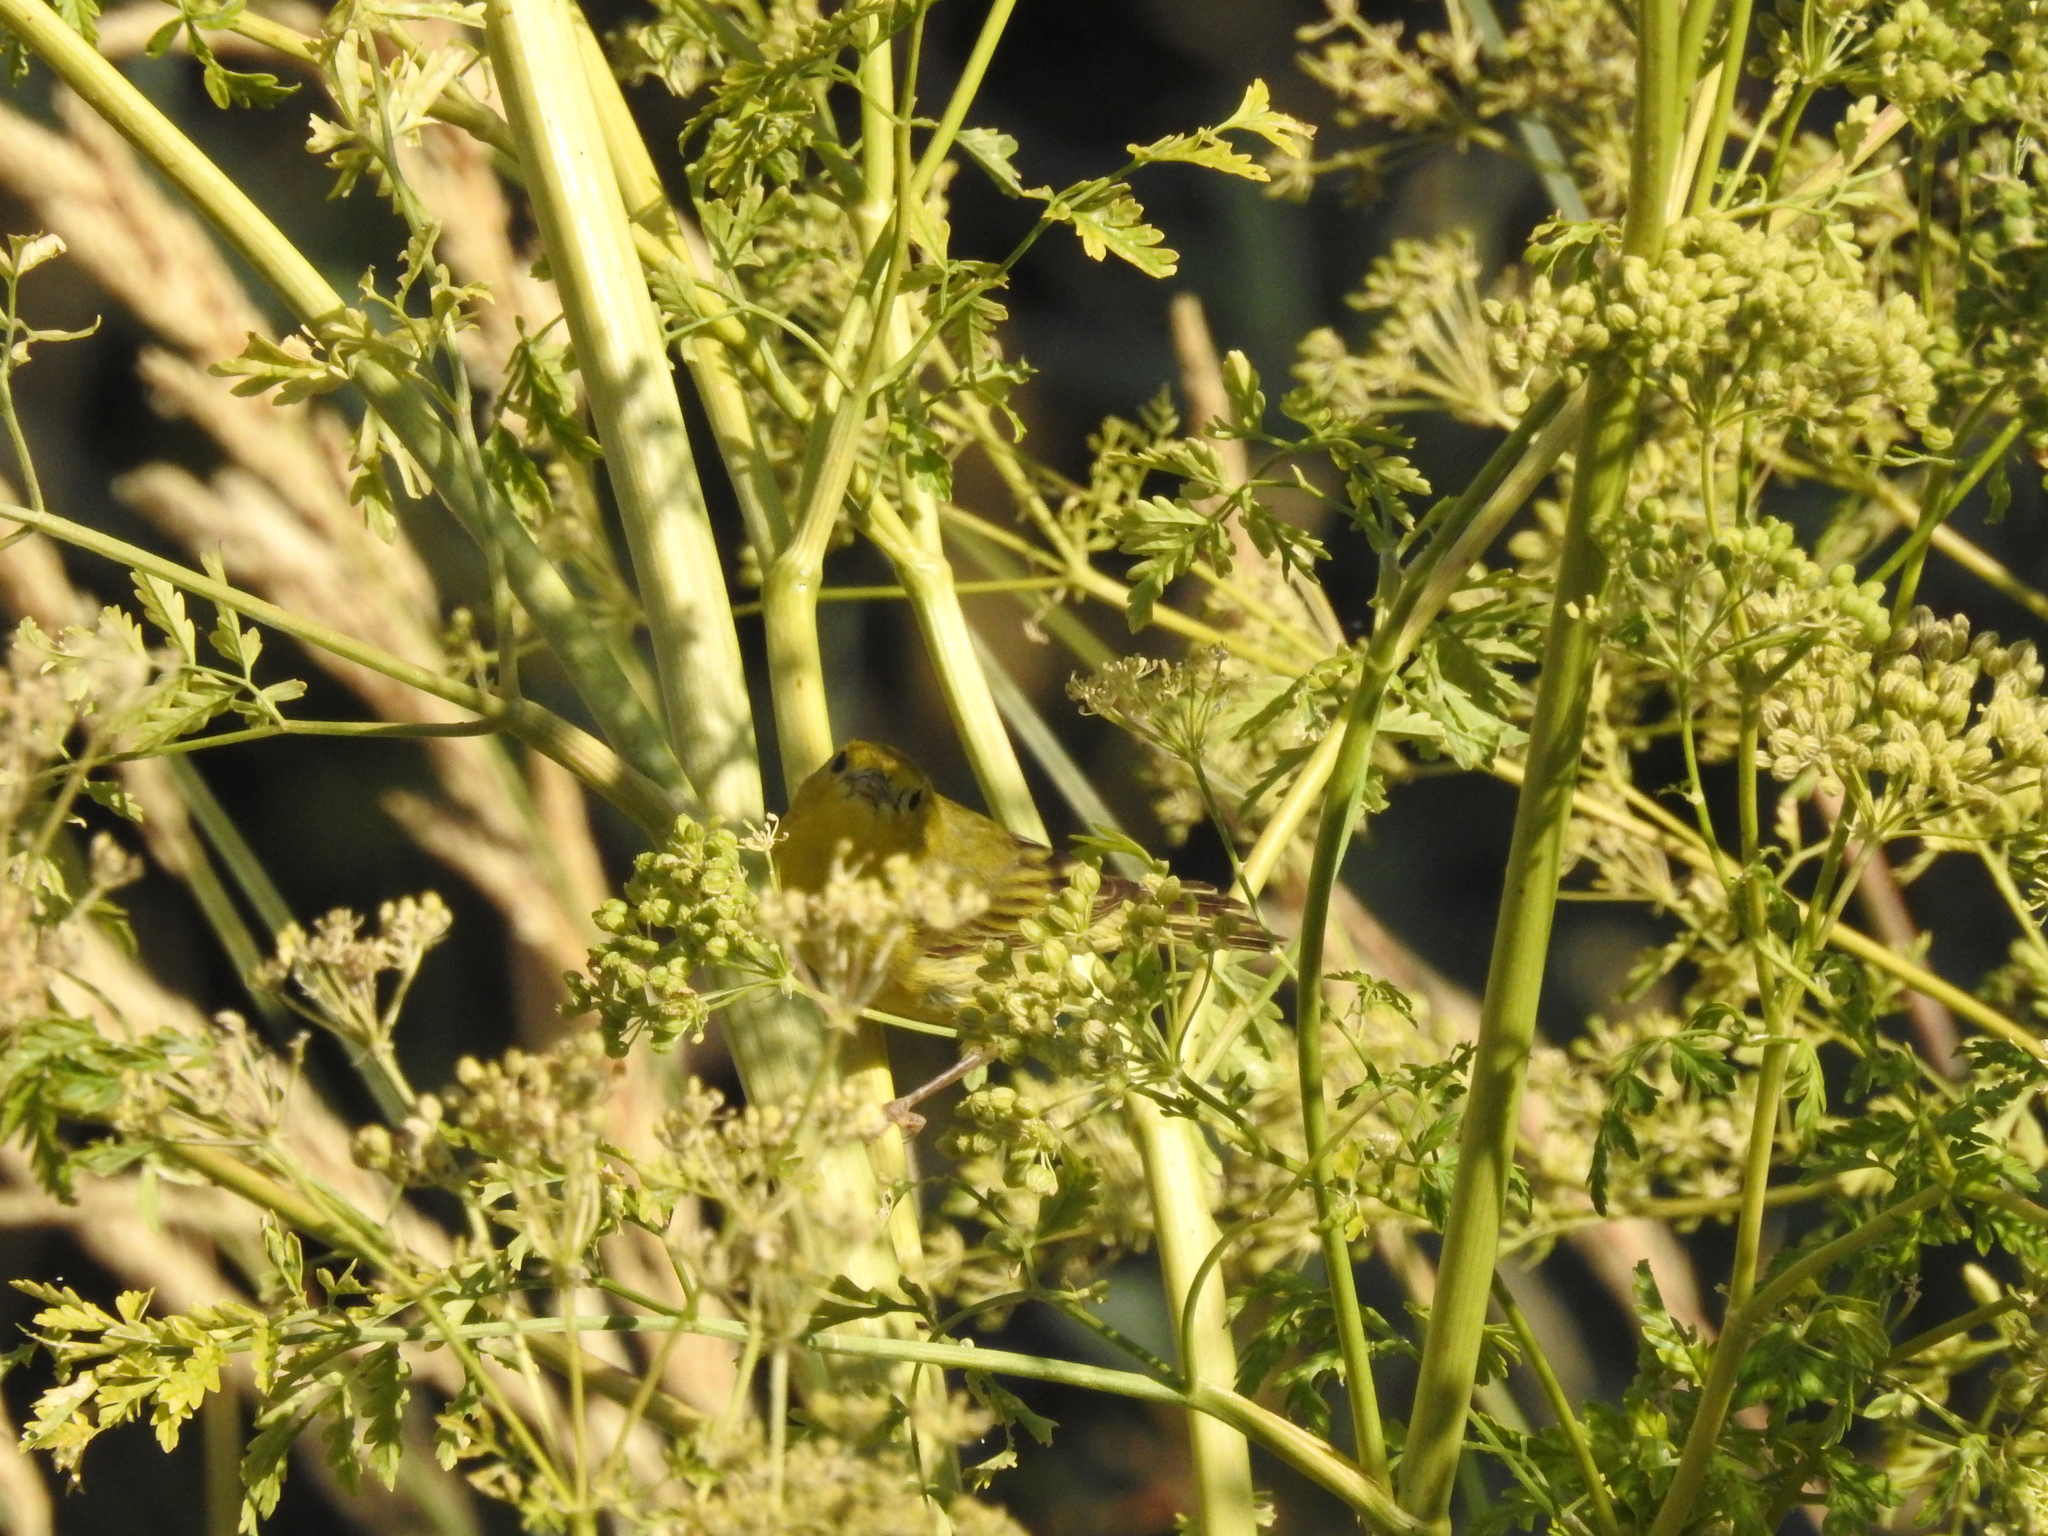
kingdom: Animalia
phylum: Chordata
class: Aves
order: Passeriformes
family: Parulidae
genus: Setophaga
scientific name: Setophaga petechia
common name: Yellow warbler
